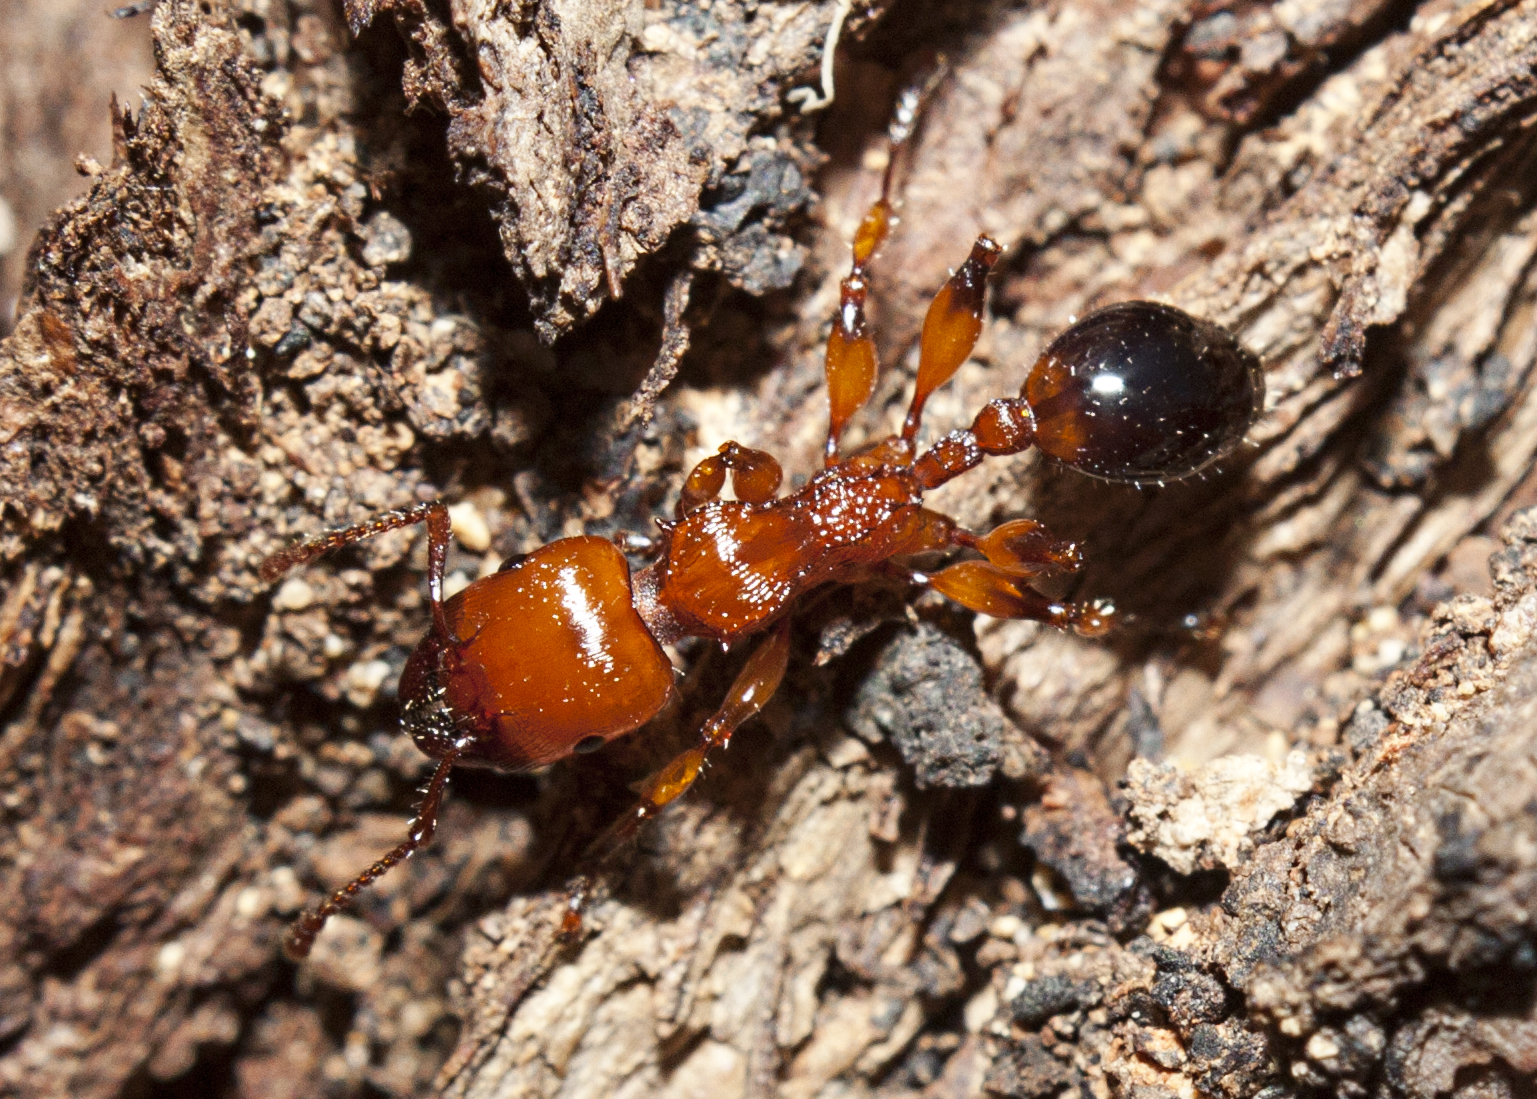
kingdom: Animalia
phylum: Arthropoda
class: Insecta
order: Hymenoptera
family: Formicidae
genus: Podomyrma
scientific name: Podomyrma gratiosa
